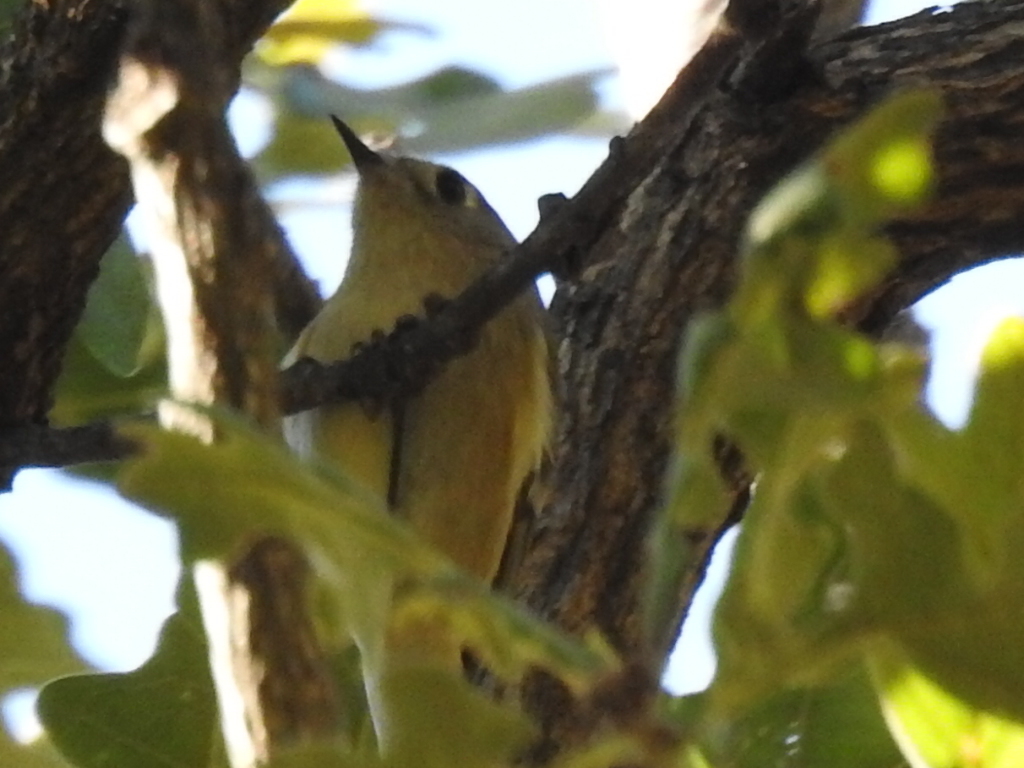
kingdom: Animalia
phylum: Chordata
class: Aves
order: Passeriformes
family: Regulidae
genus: Regulus
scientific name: Regulus calendula
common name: Ruby-crowned kinglet
